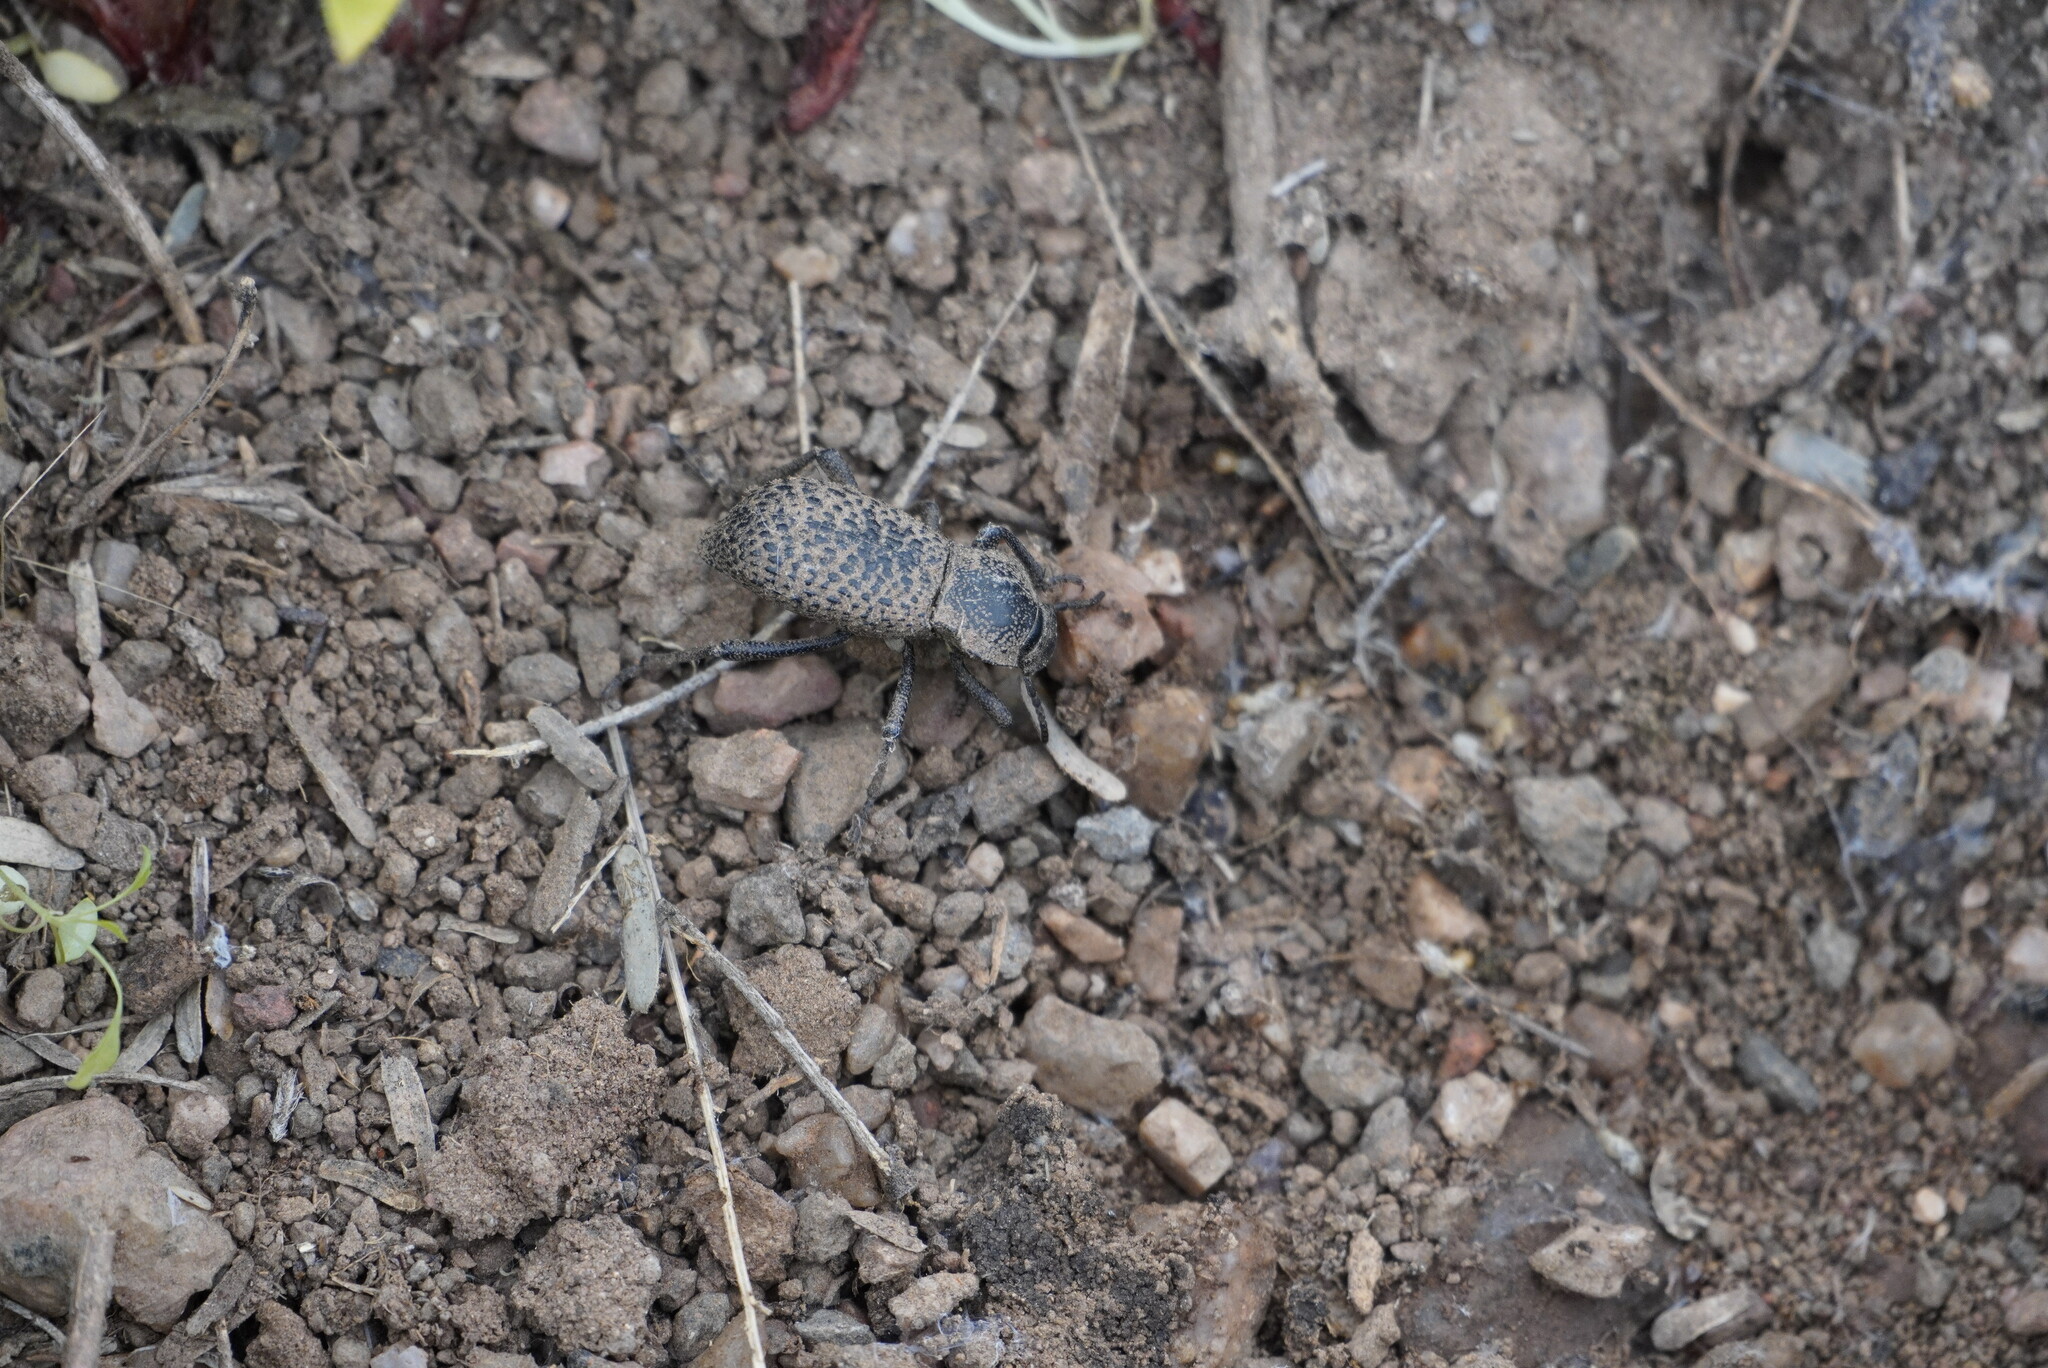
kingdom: Animalia
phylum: Arthropoda
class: Insecta
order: Coleoptera
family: Tenebrionidae
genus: Cryptoglossa
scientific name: Cryptoglossa variolosa
